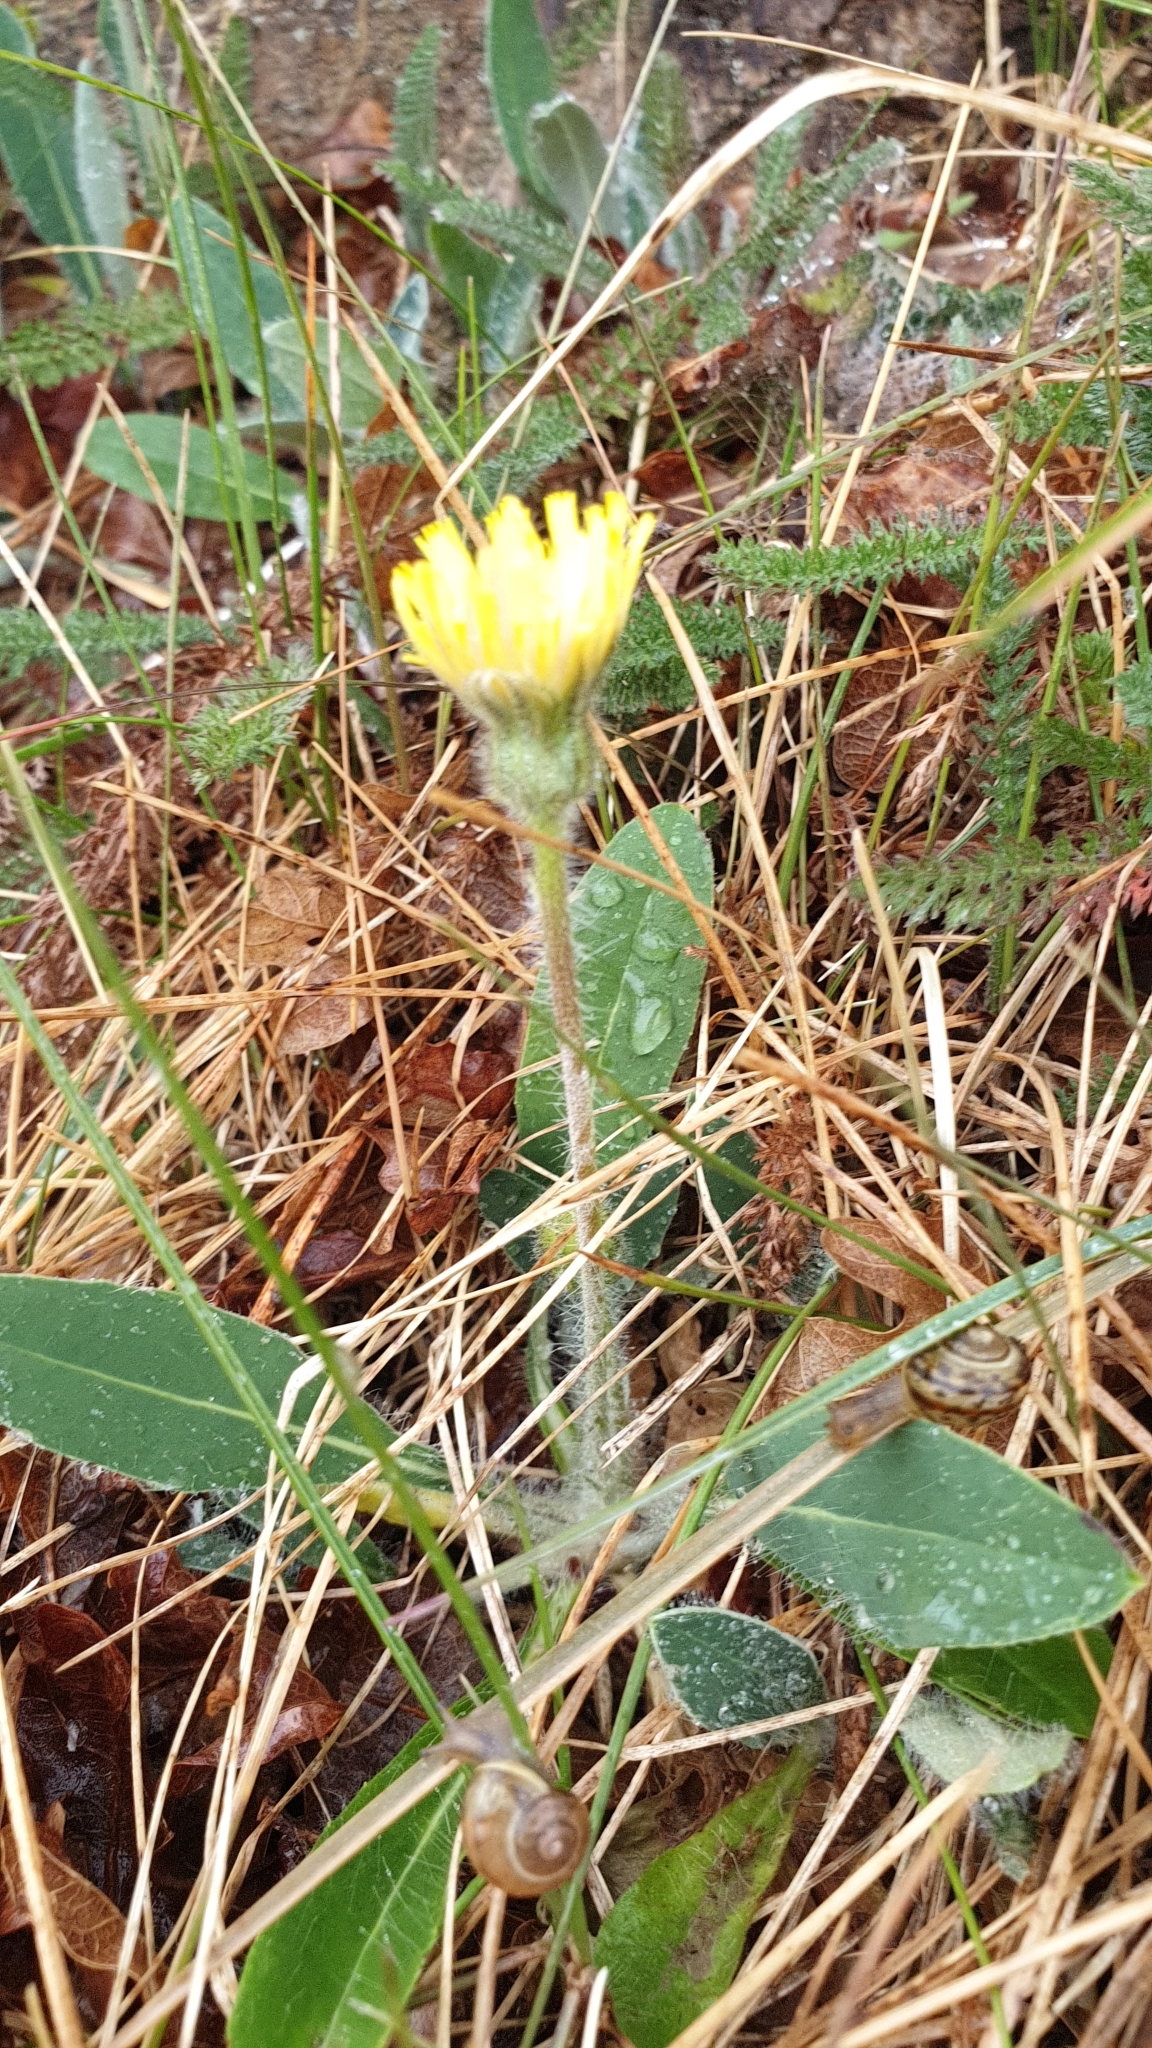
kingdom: Plantae
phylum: Tracheophyta
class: Magnoliopsida
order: Asterales
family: Asteraceae
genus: Pilosella
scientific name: Pilosella officinarum
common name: Mouse-ear hawkweed
